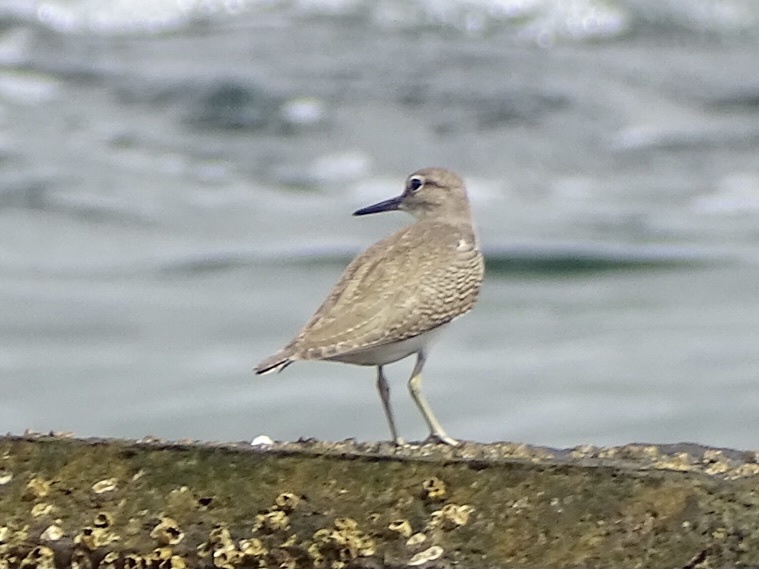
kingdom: Animalia
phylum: Chordata
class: Aves
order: Charadriiformes
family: Scolopacidae
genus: Actitis
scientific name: Actitis hypoleucos
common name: Common sandpiper
